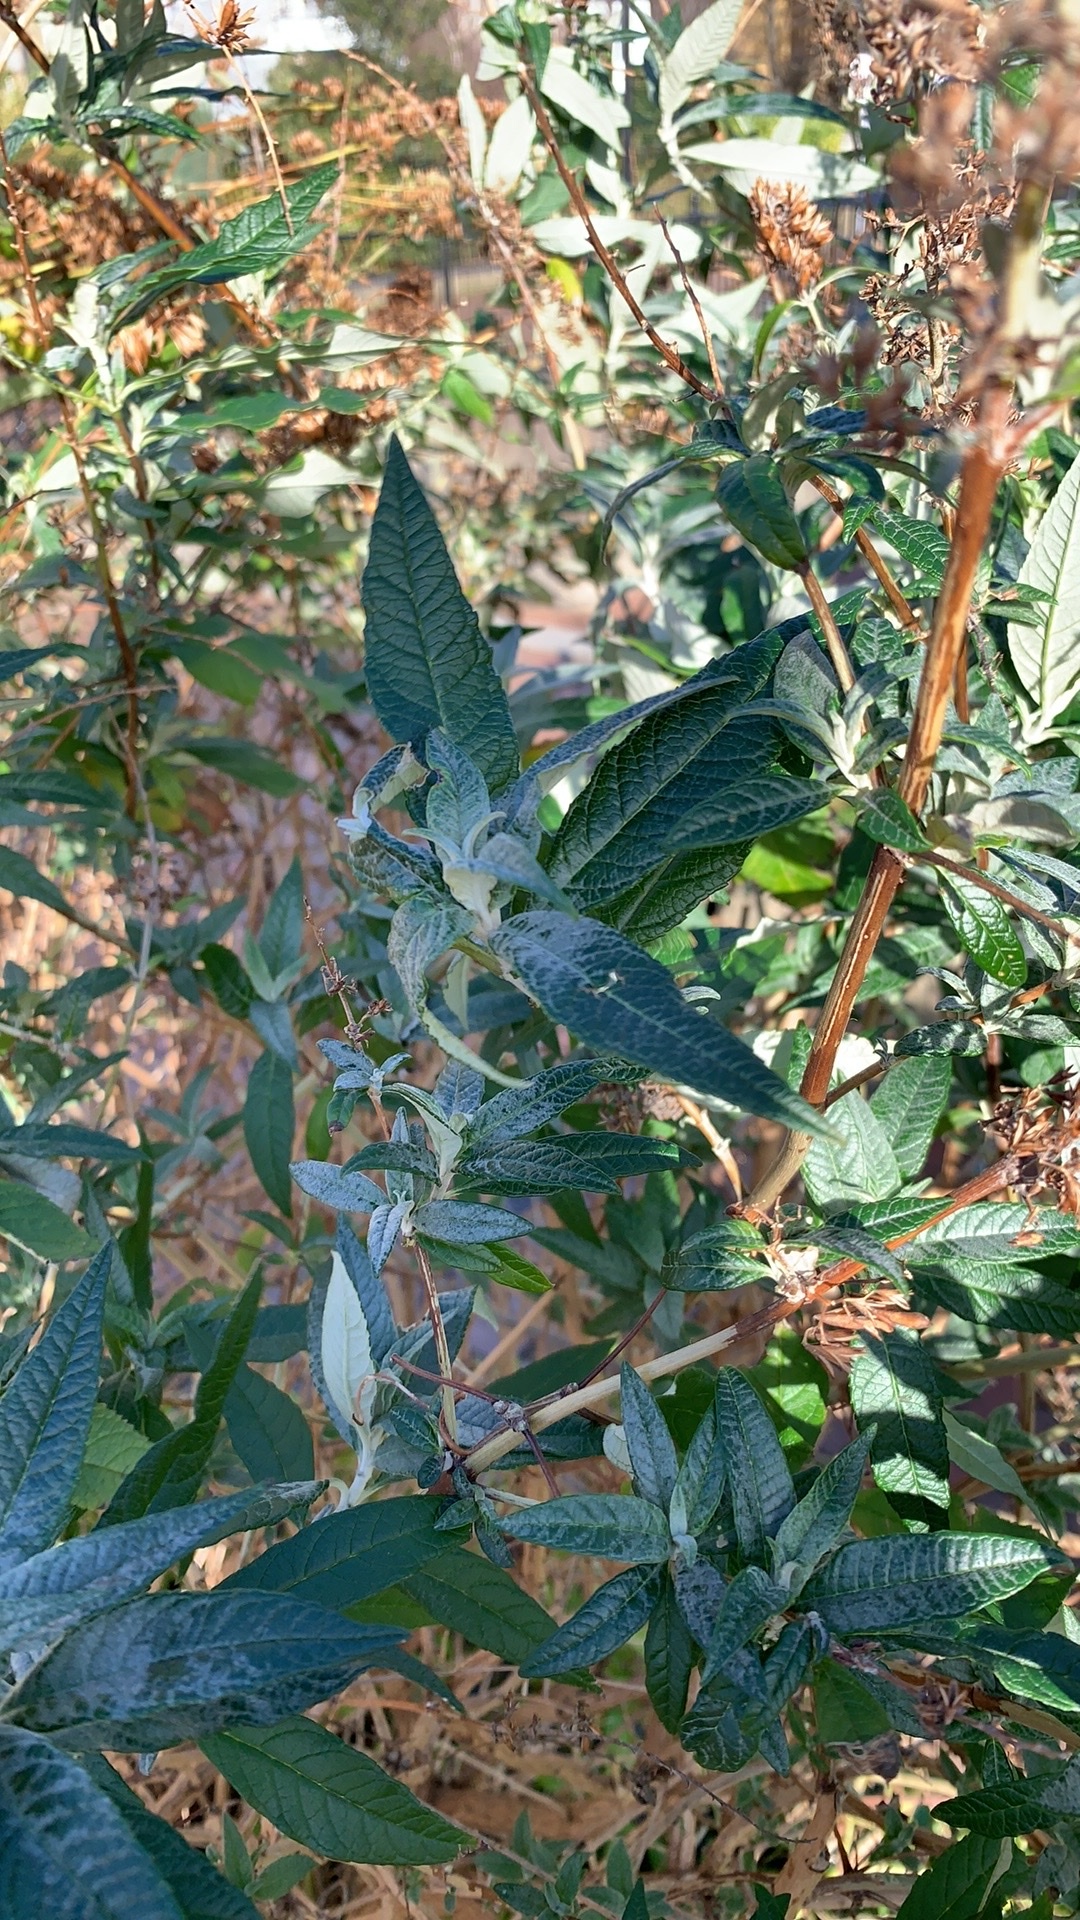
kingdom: Plantae
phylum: Tracheophyta
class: Magnoliopsida
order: Lamiales
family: Scrophulariaceae
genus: Buddleja
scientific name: Buddleja davidii
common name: Butterfly-bush
